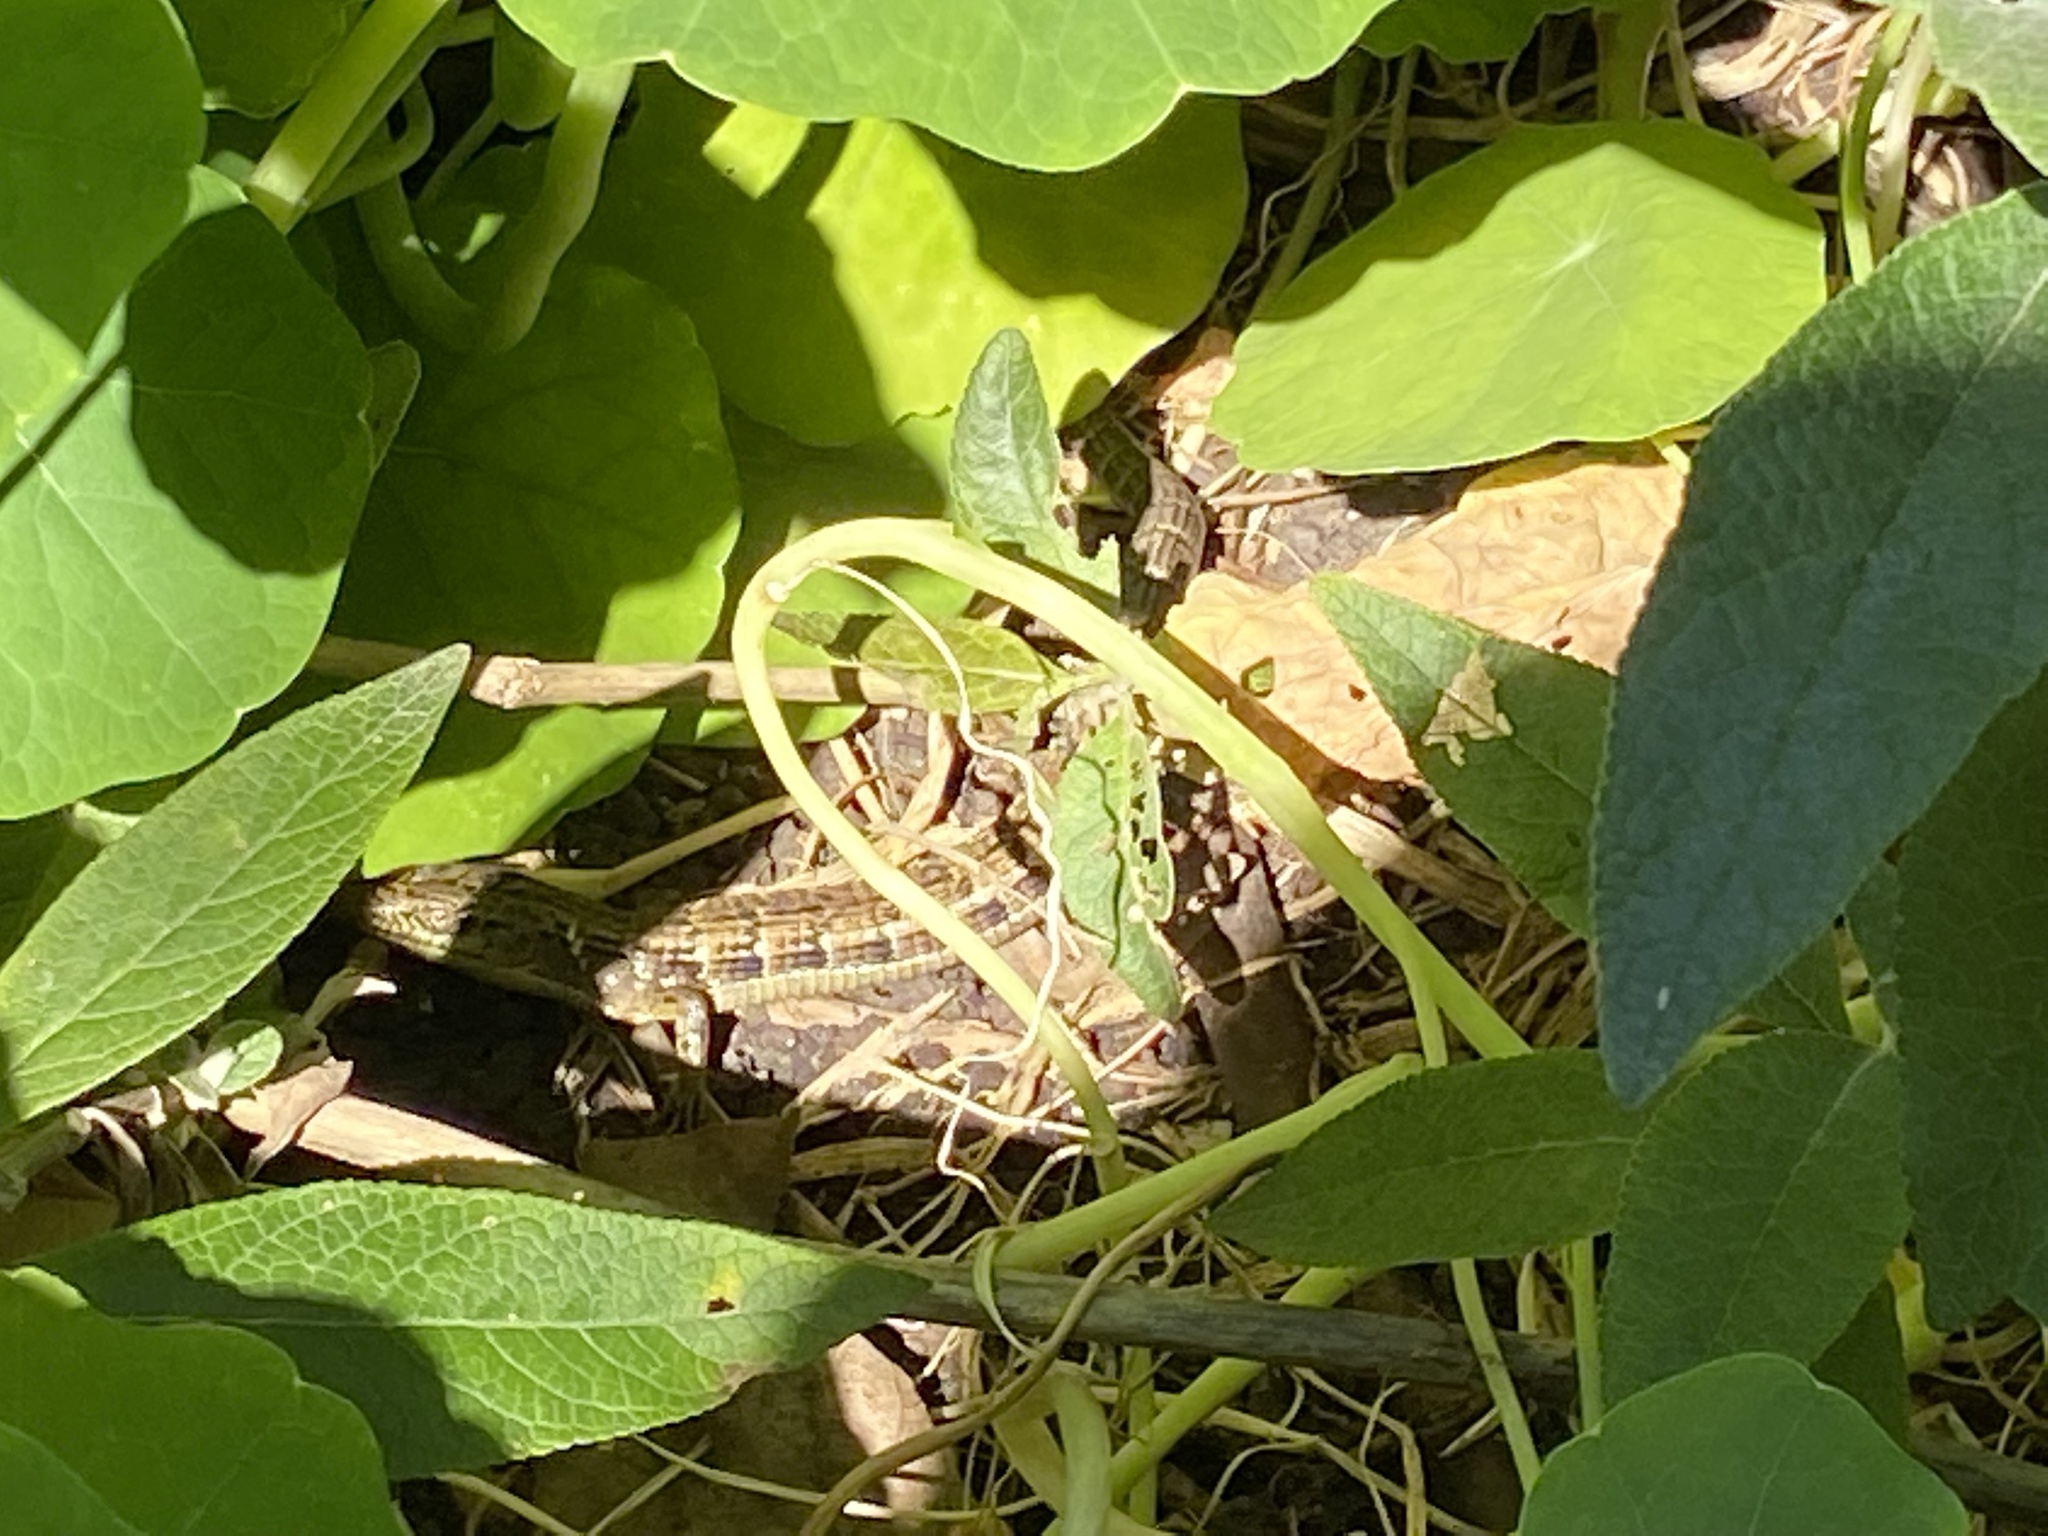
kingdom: Animalia
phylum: Chordata
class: Squamata
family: Anguidae
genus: Elgaria
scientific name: Elgaria multicarinata
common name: Southern alligator lizard
